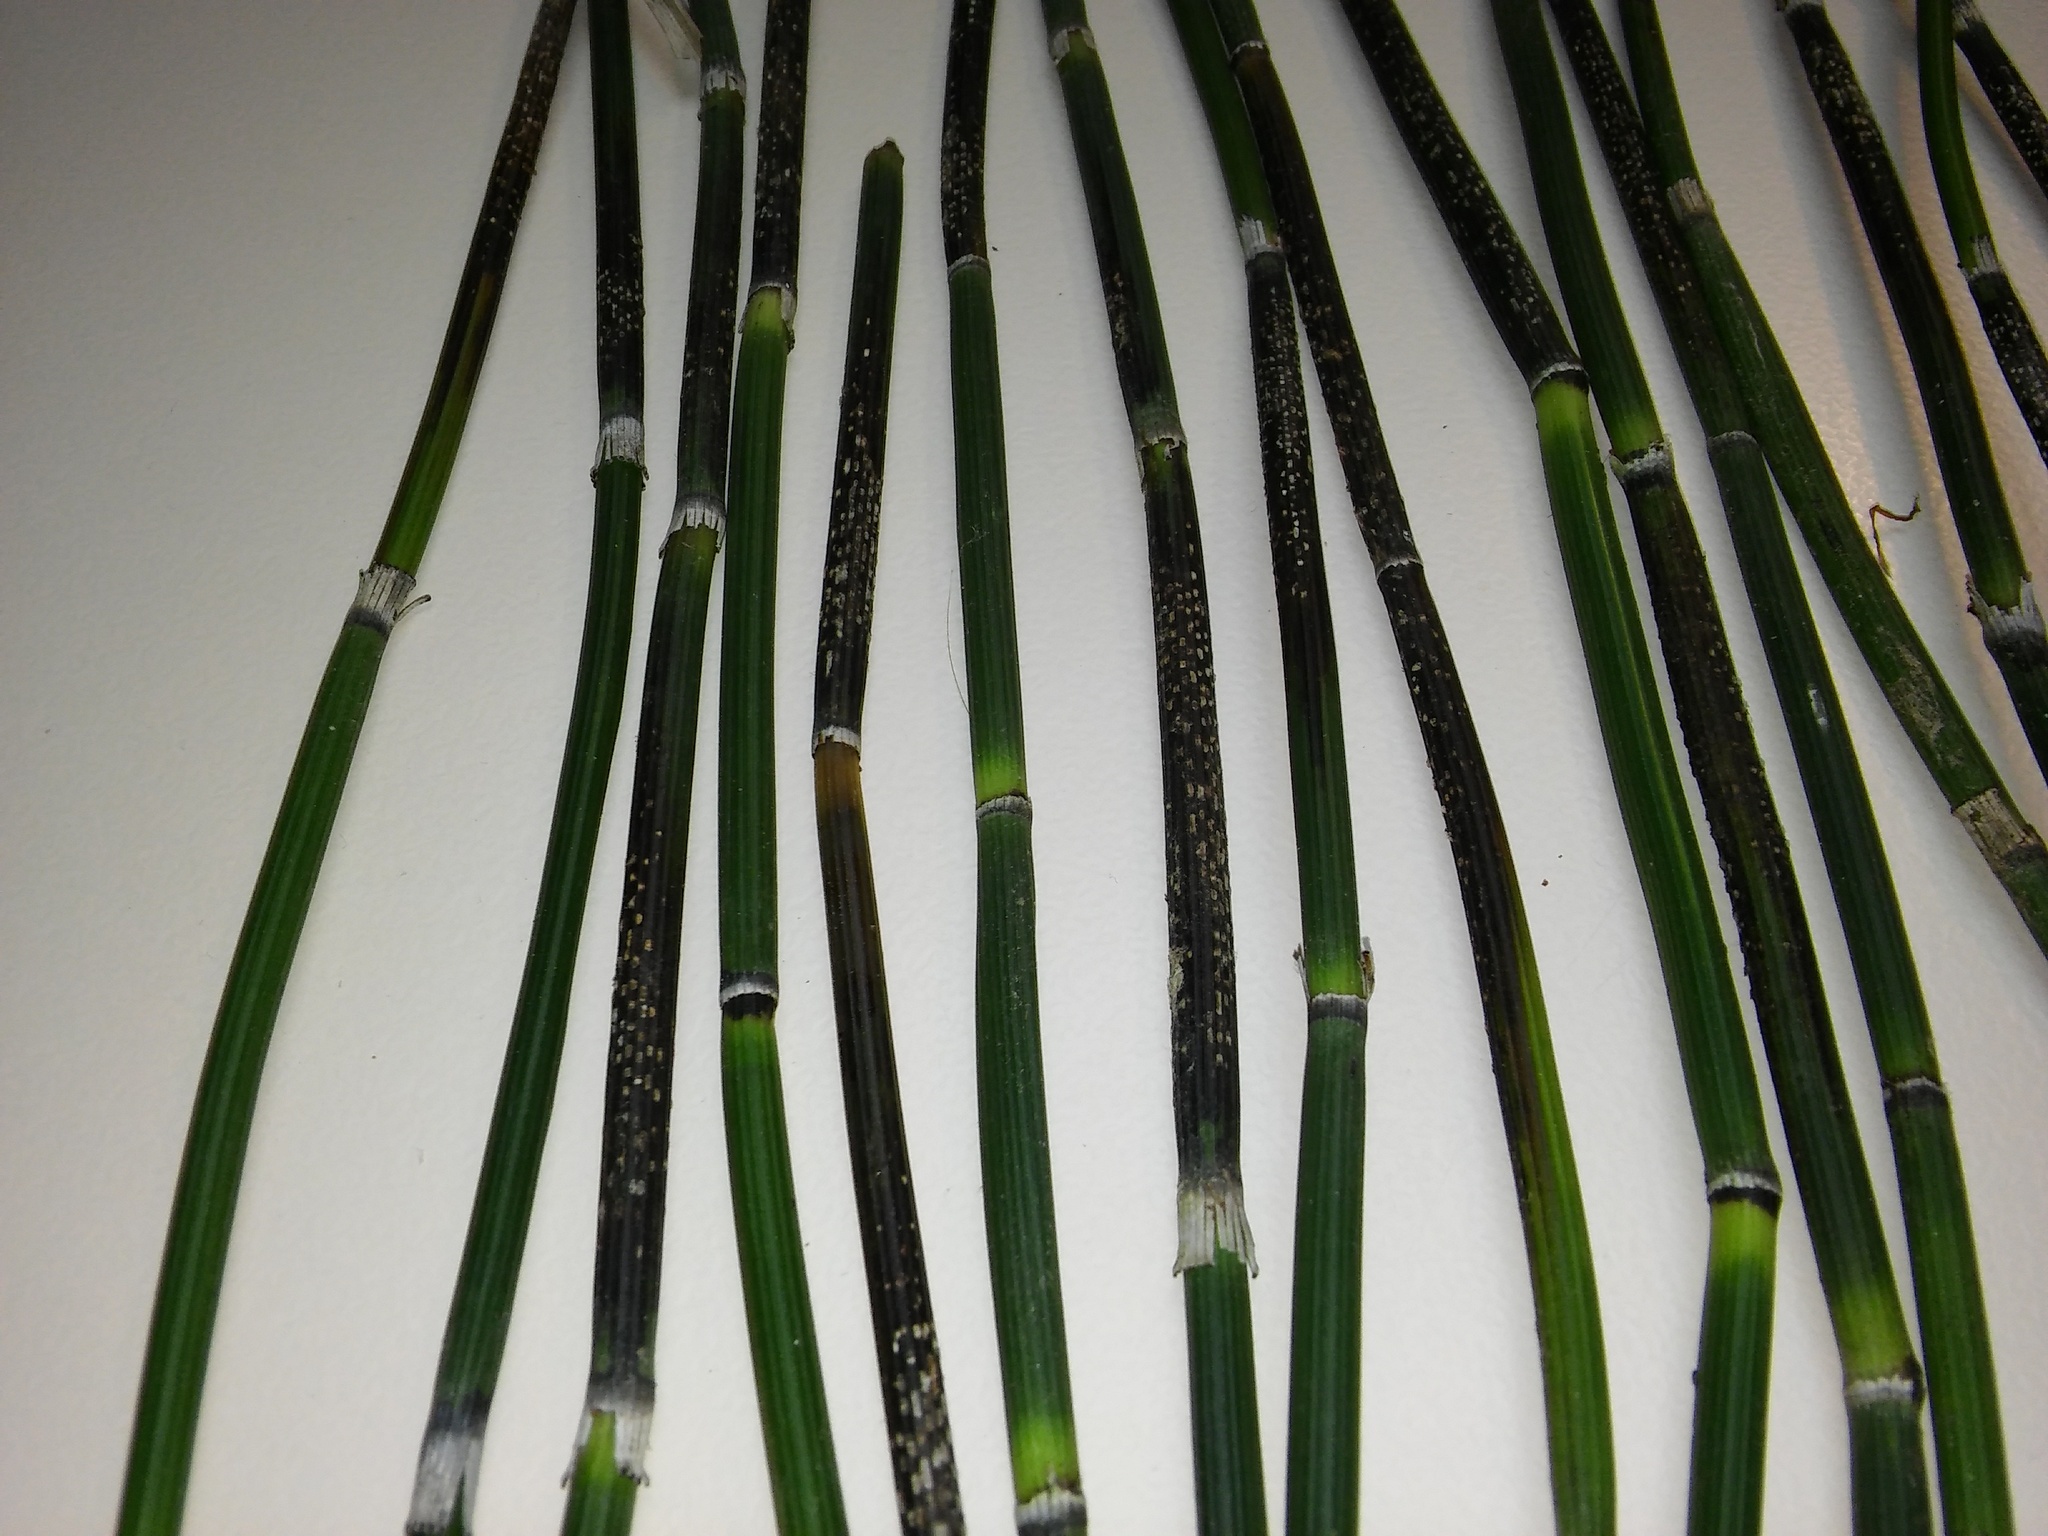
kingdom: Fungi
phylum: Ascomycota
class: Leotiomycetes
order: Helotiales
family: Helotiaceae
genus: Stamnaria
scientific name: Stamnaria americana
